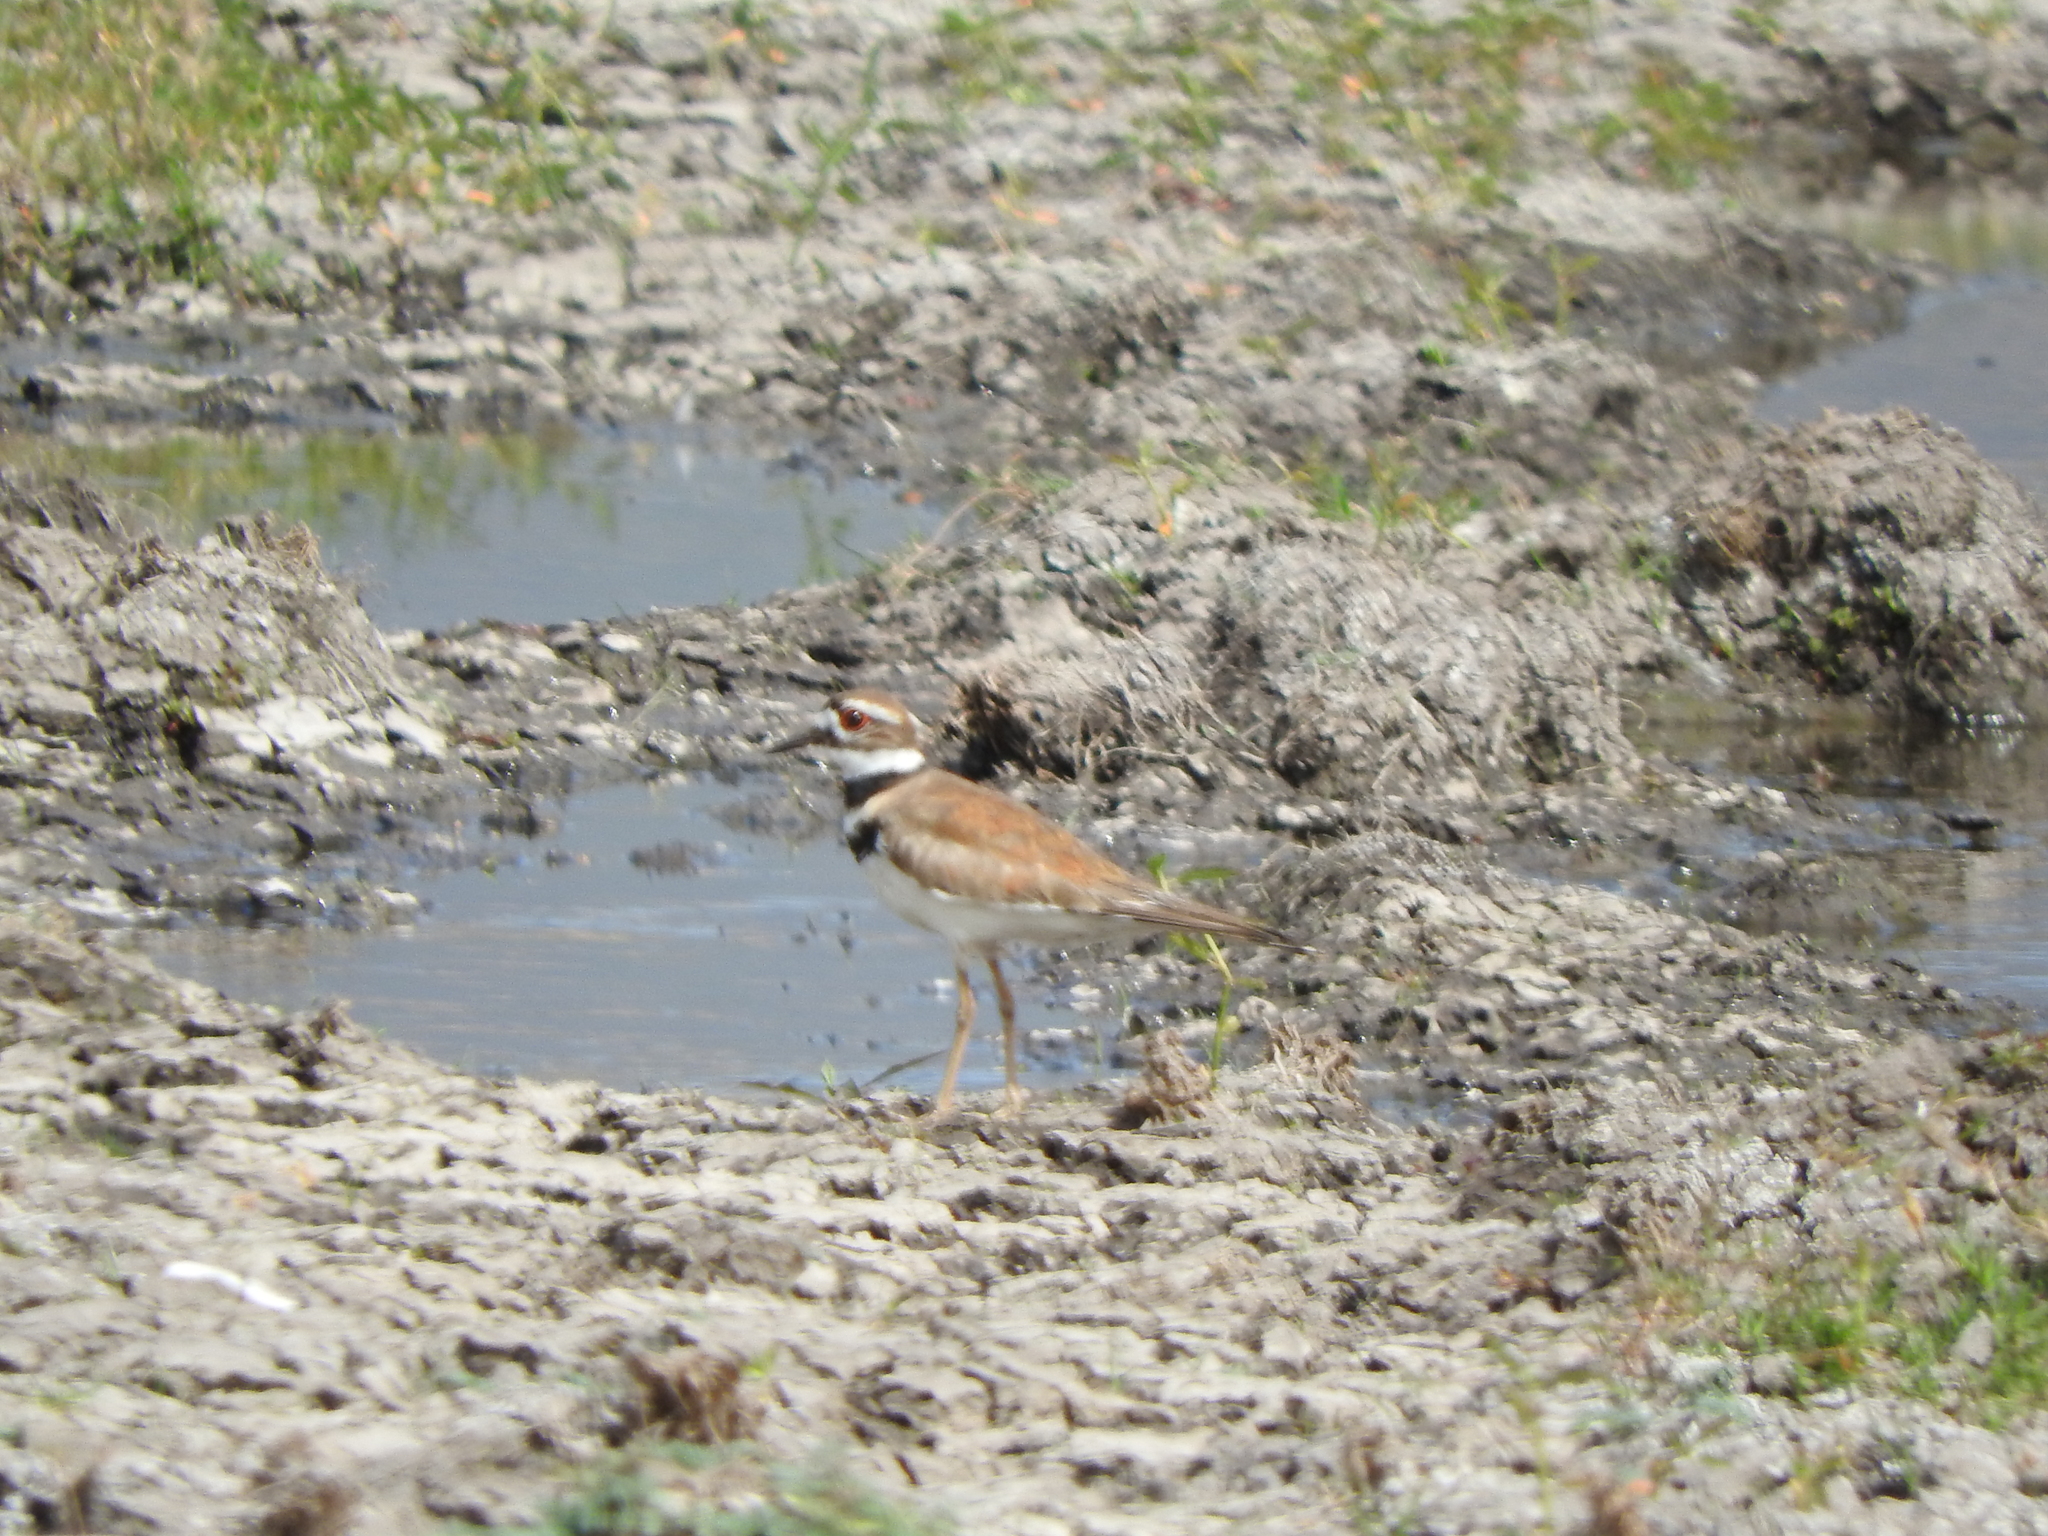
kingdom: Animalia
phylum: Chordata
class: Aves
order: Charadriiformes
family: Charadriidae
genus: Charadrius
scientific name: Charadrius vociferus
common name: Killdeer
